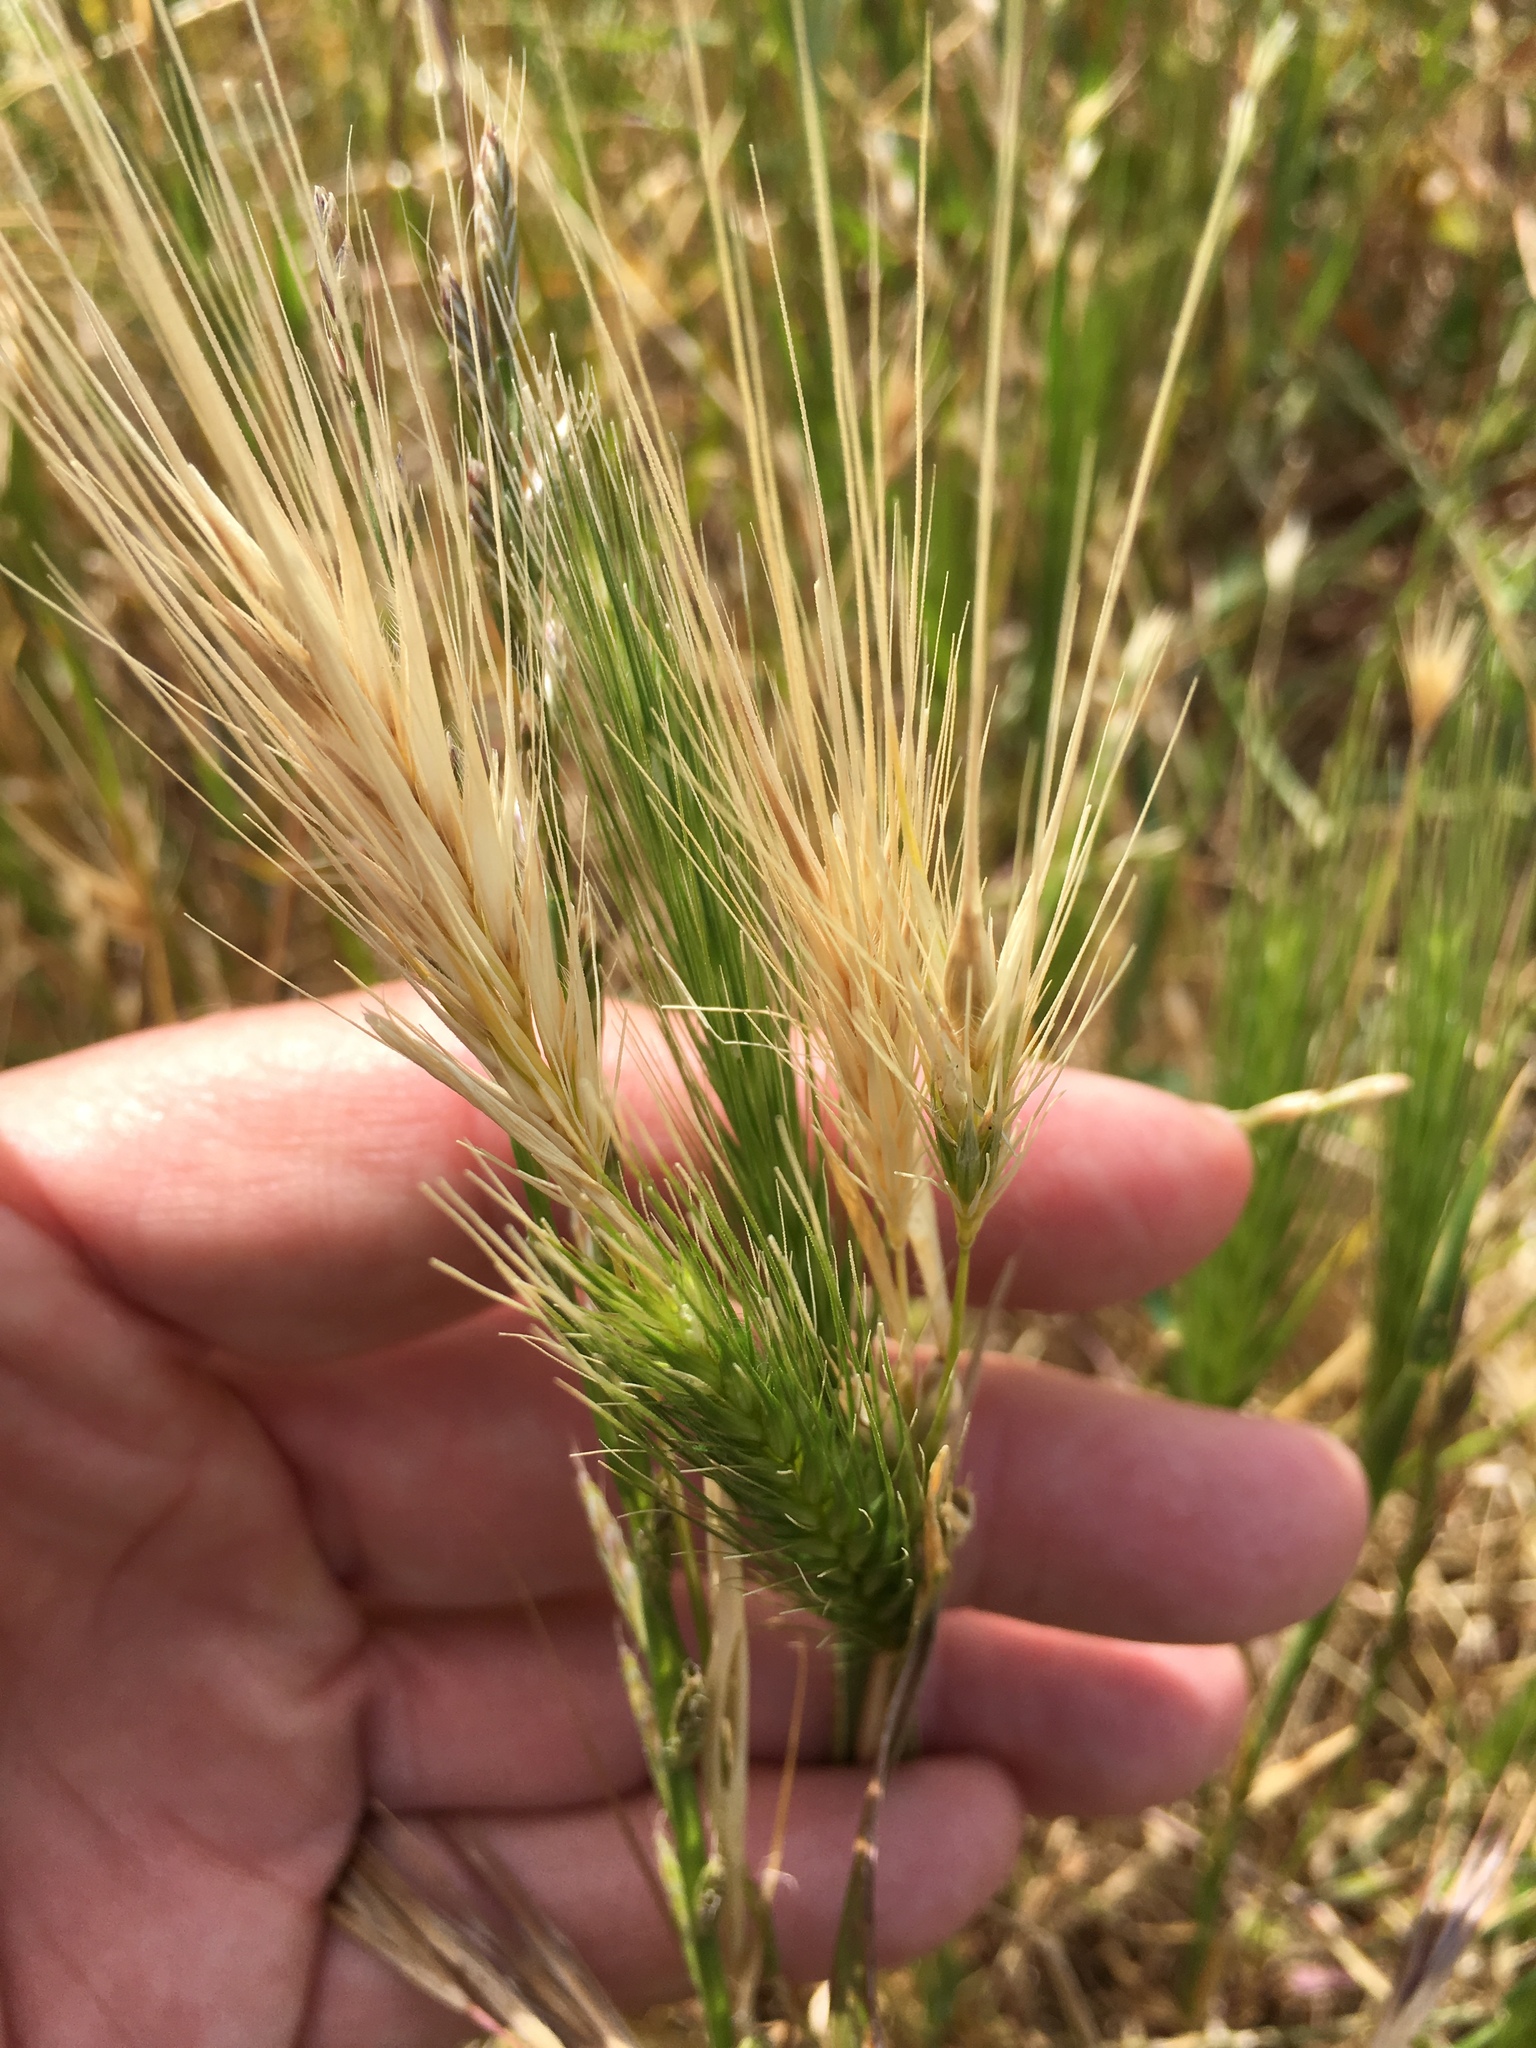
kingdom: Plantae
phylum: Tracheophyta
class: Liliopsida
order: Poales
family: Poaceae
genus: Hordeum
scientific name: Hordeum jubatum
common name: Foxtail barley
